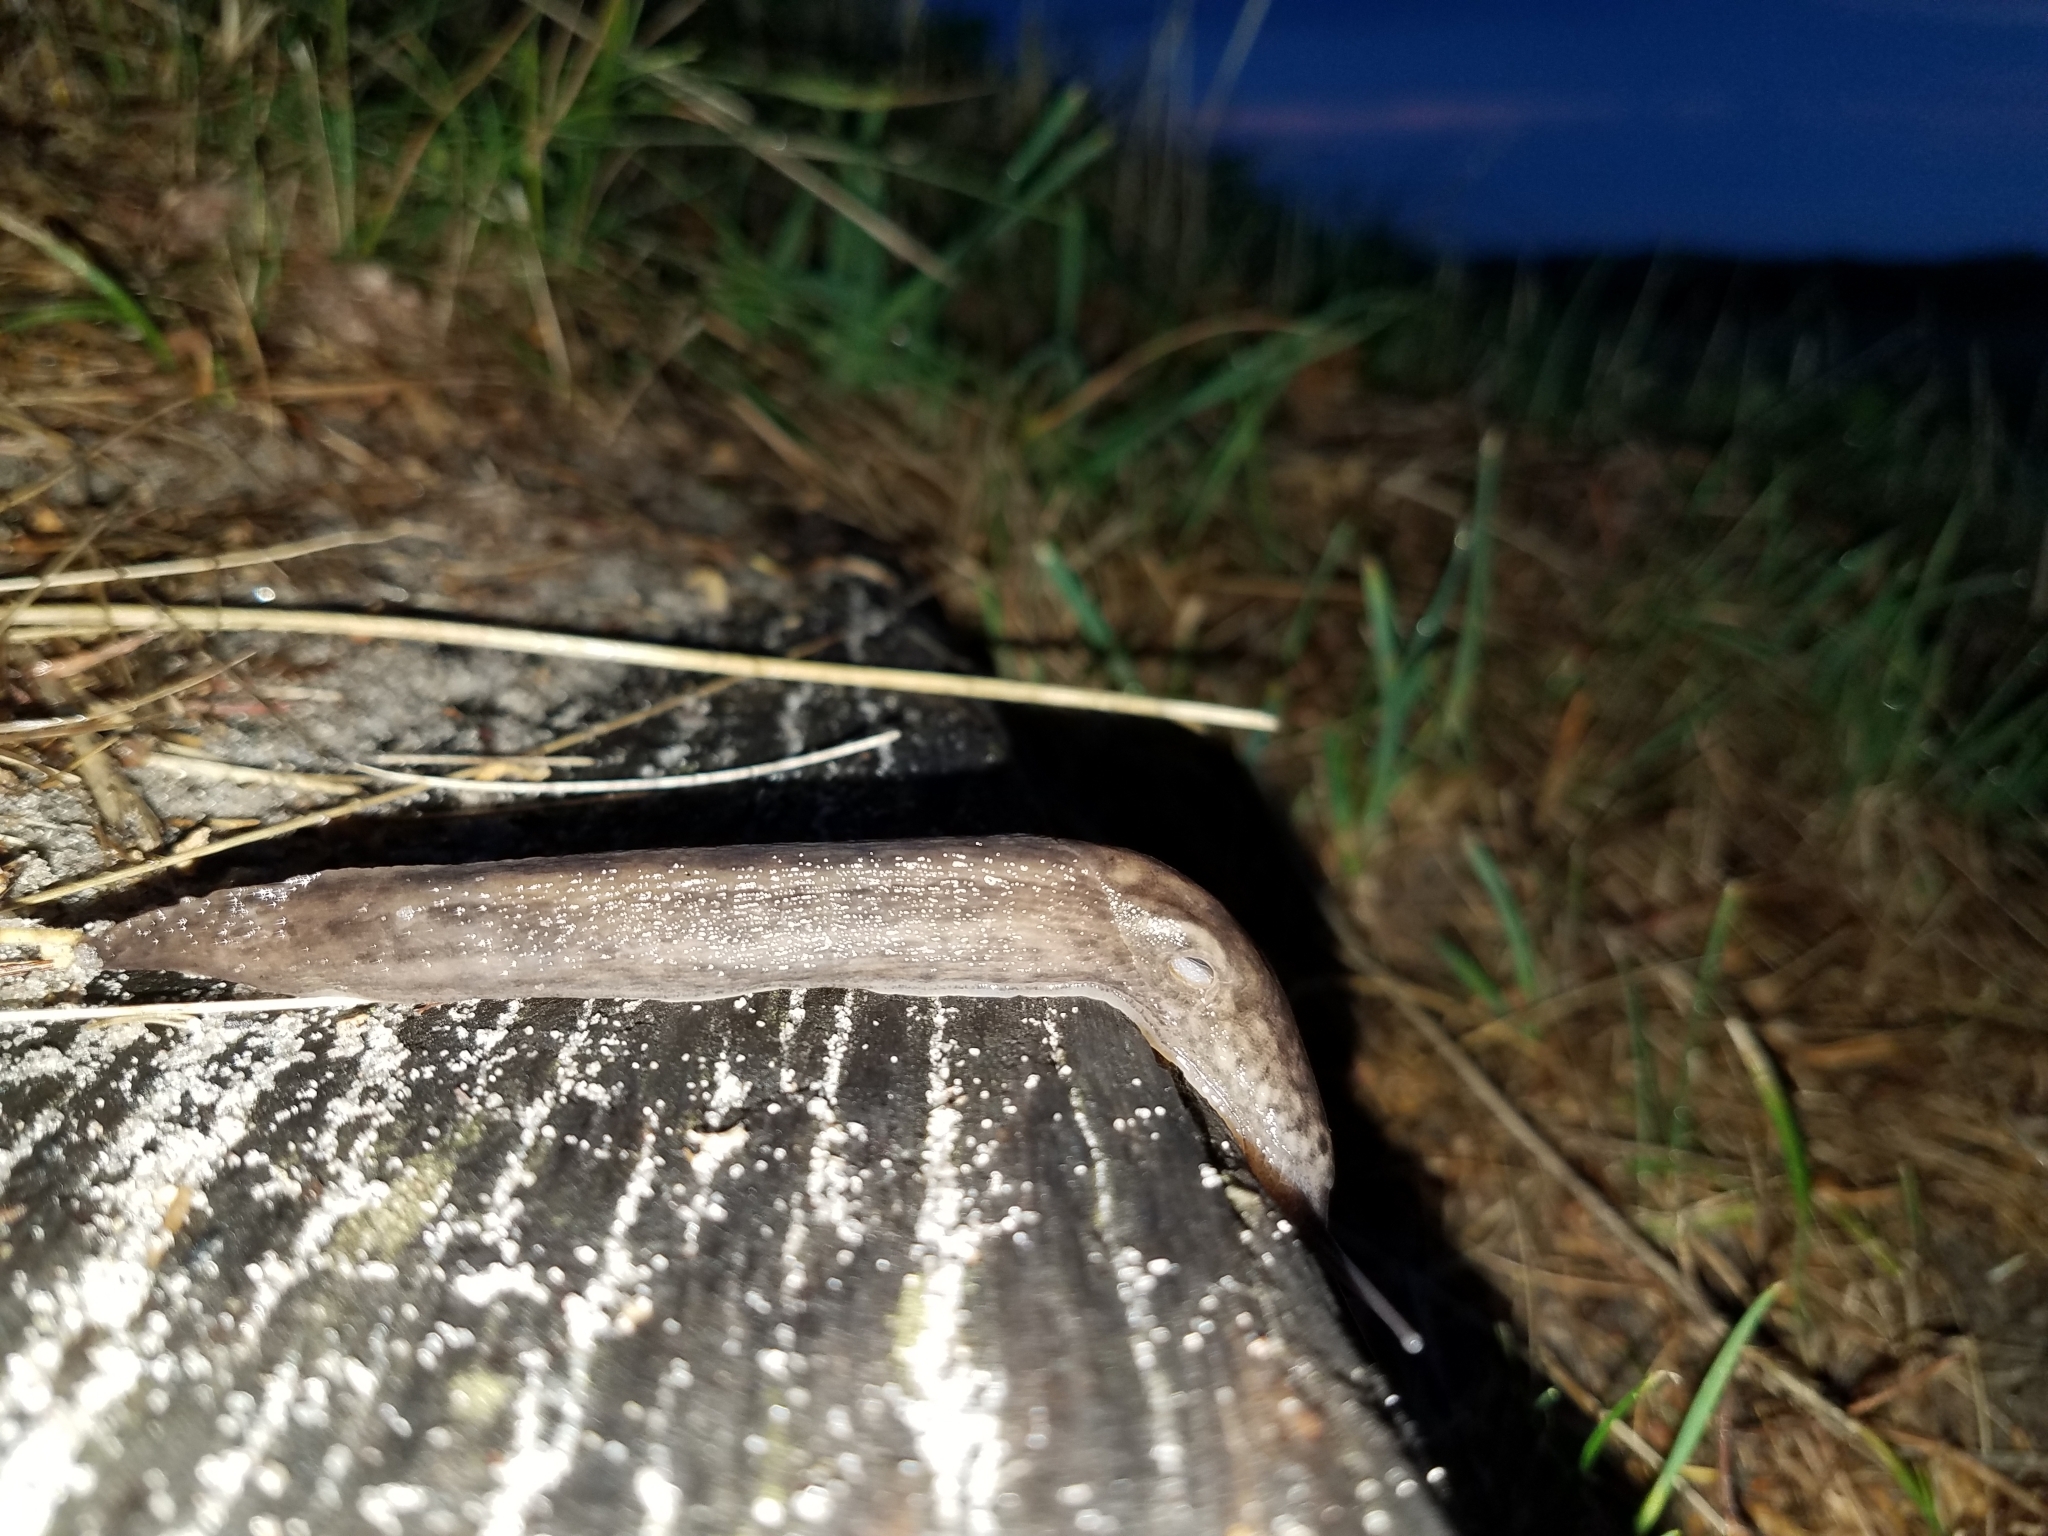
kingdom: Animalia
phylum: Mollusca
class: Gastropoda
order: Stylommatophora
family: Limacidae
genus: Limax
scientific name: Limax maximus
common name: Great grey slug
